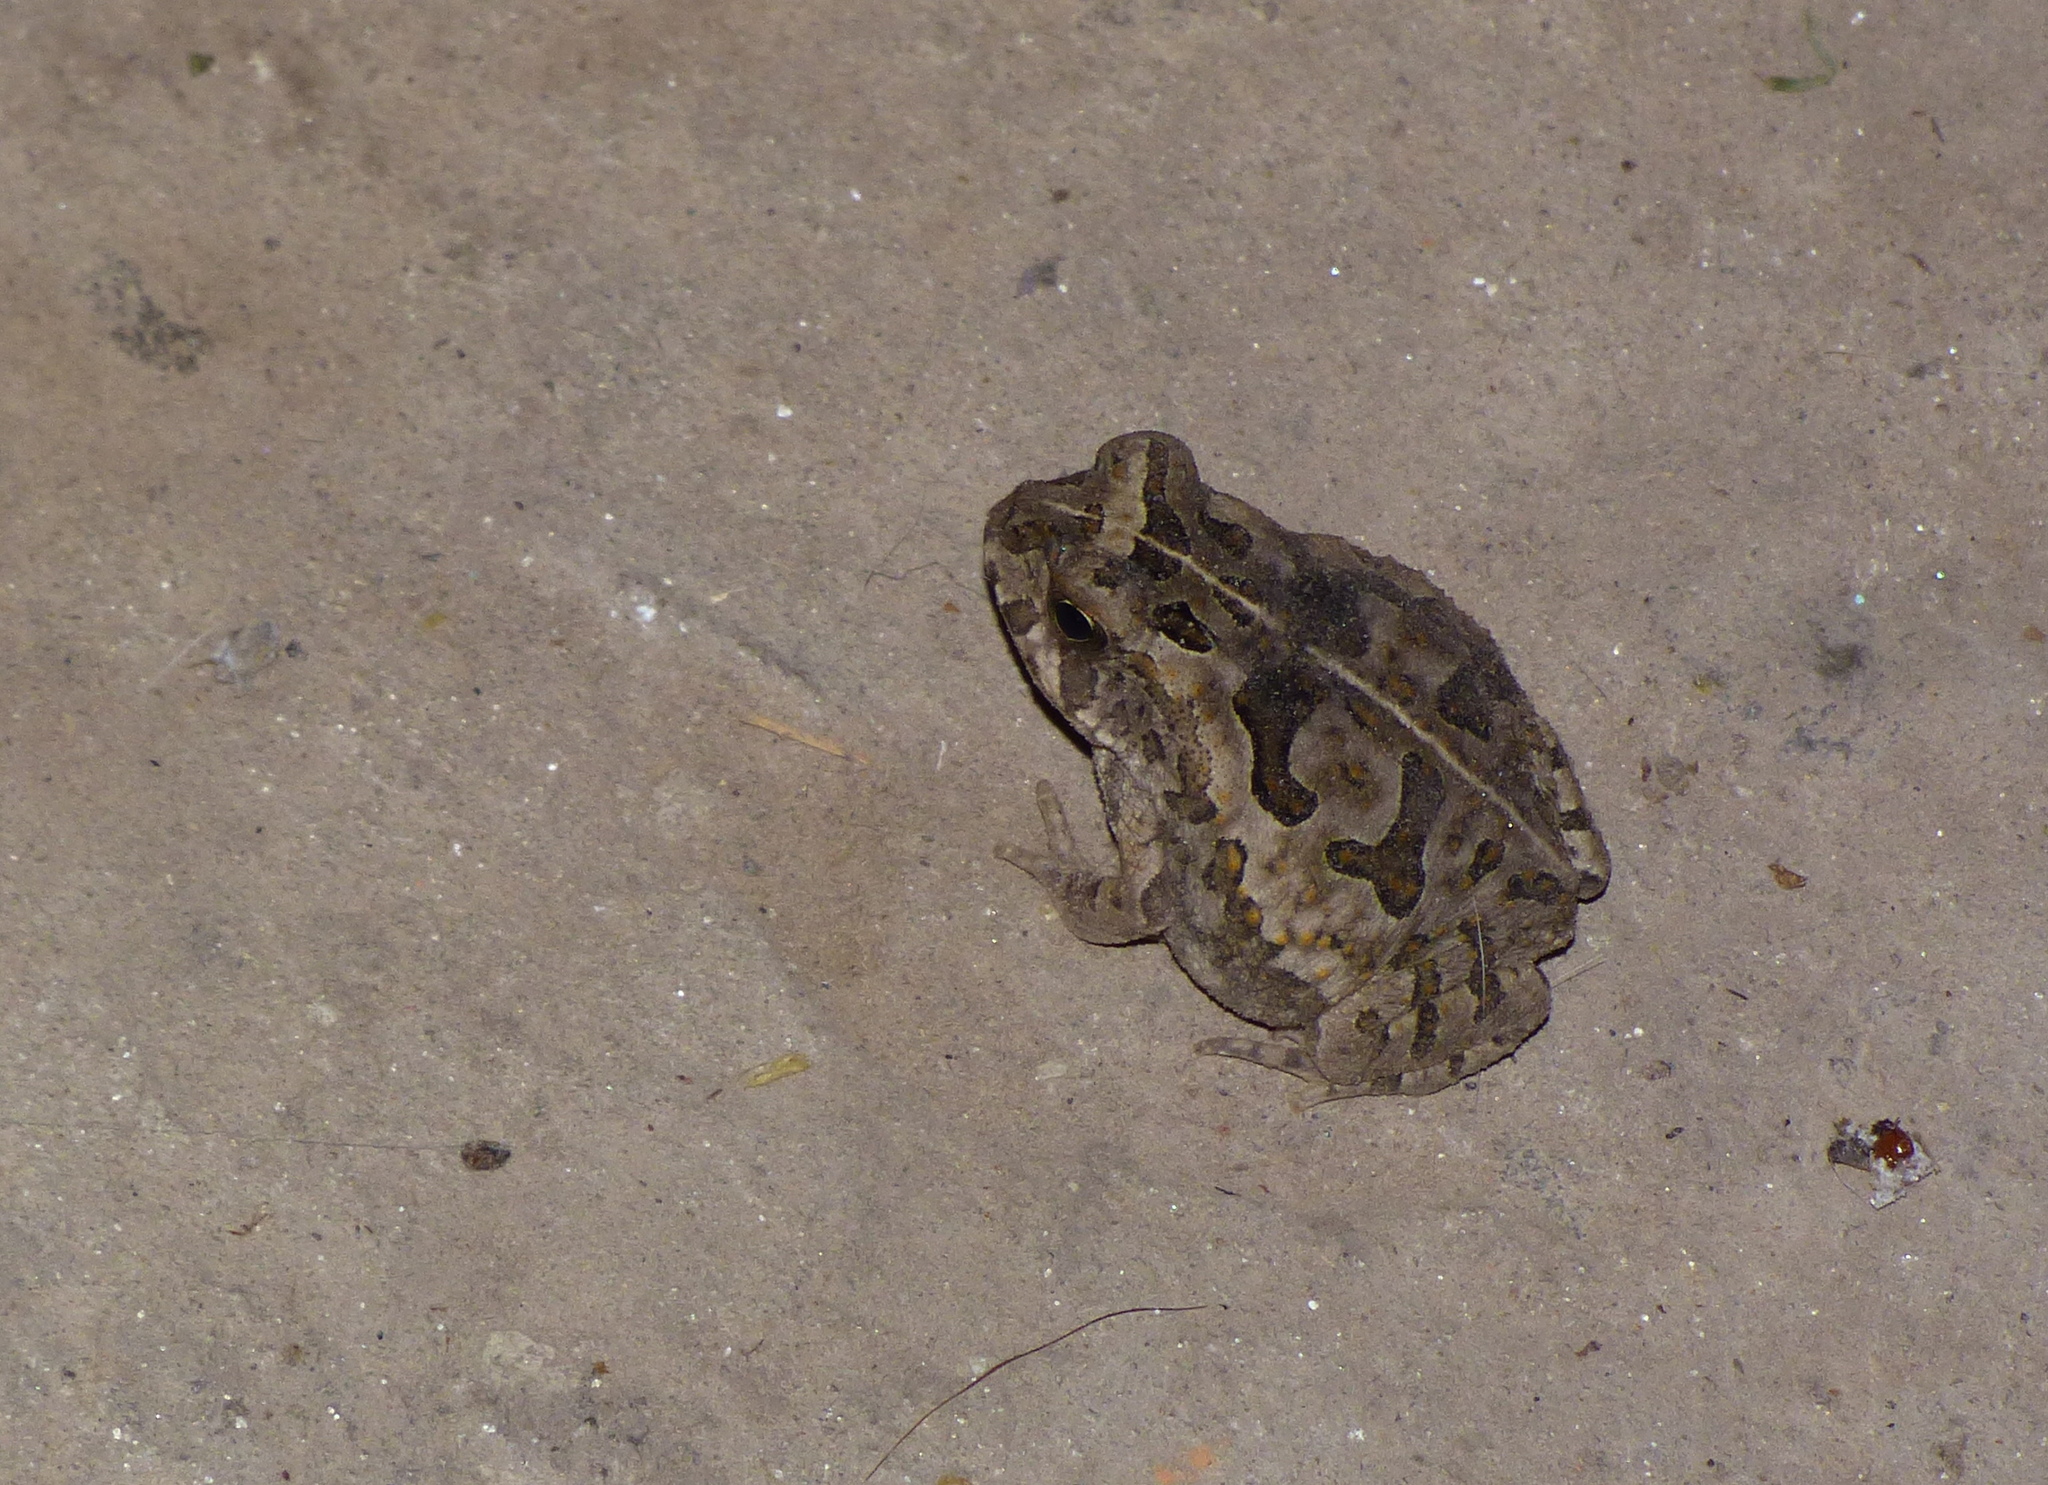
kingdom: Animalia
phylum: Chordata
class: Amphibia
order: Anura
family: Bufonidae
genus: Rhinella
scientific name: Rhinella diptycha
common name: Cope's toad
